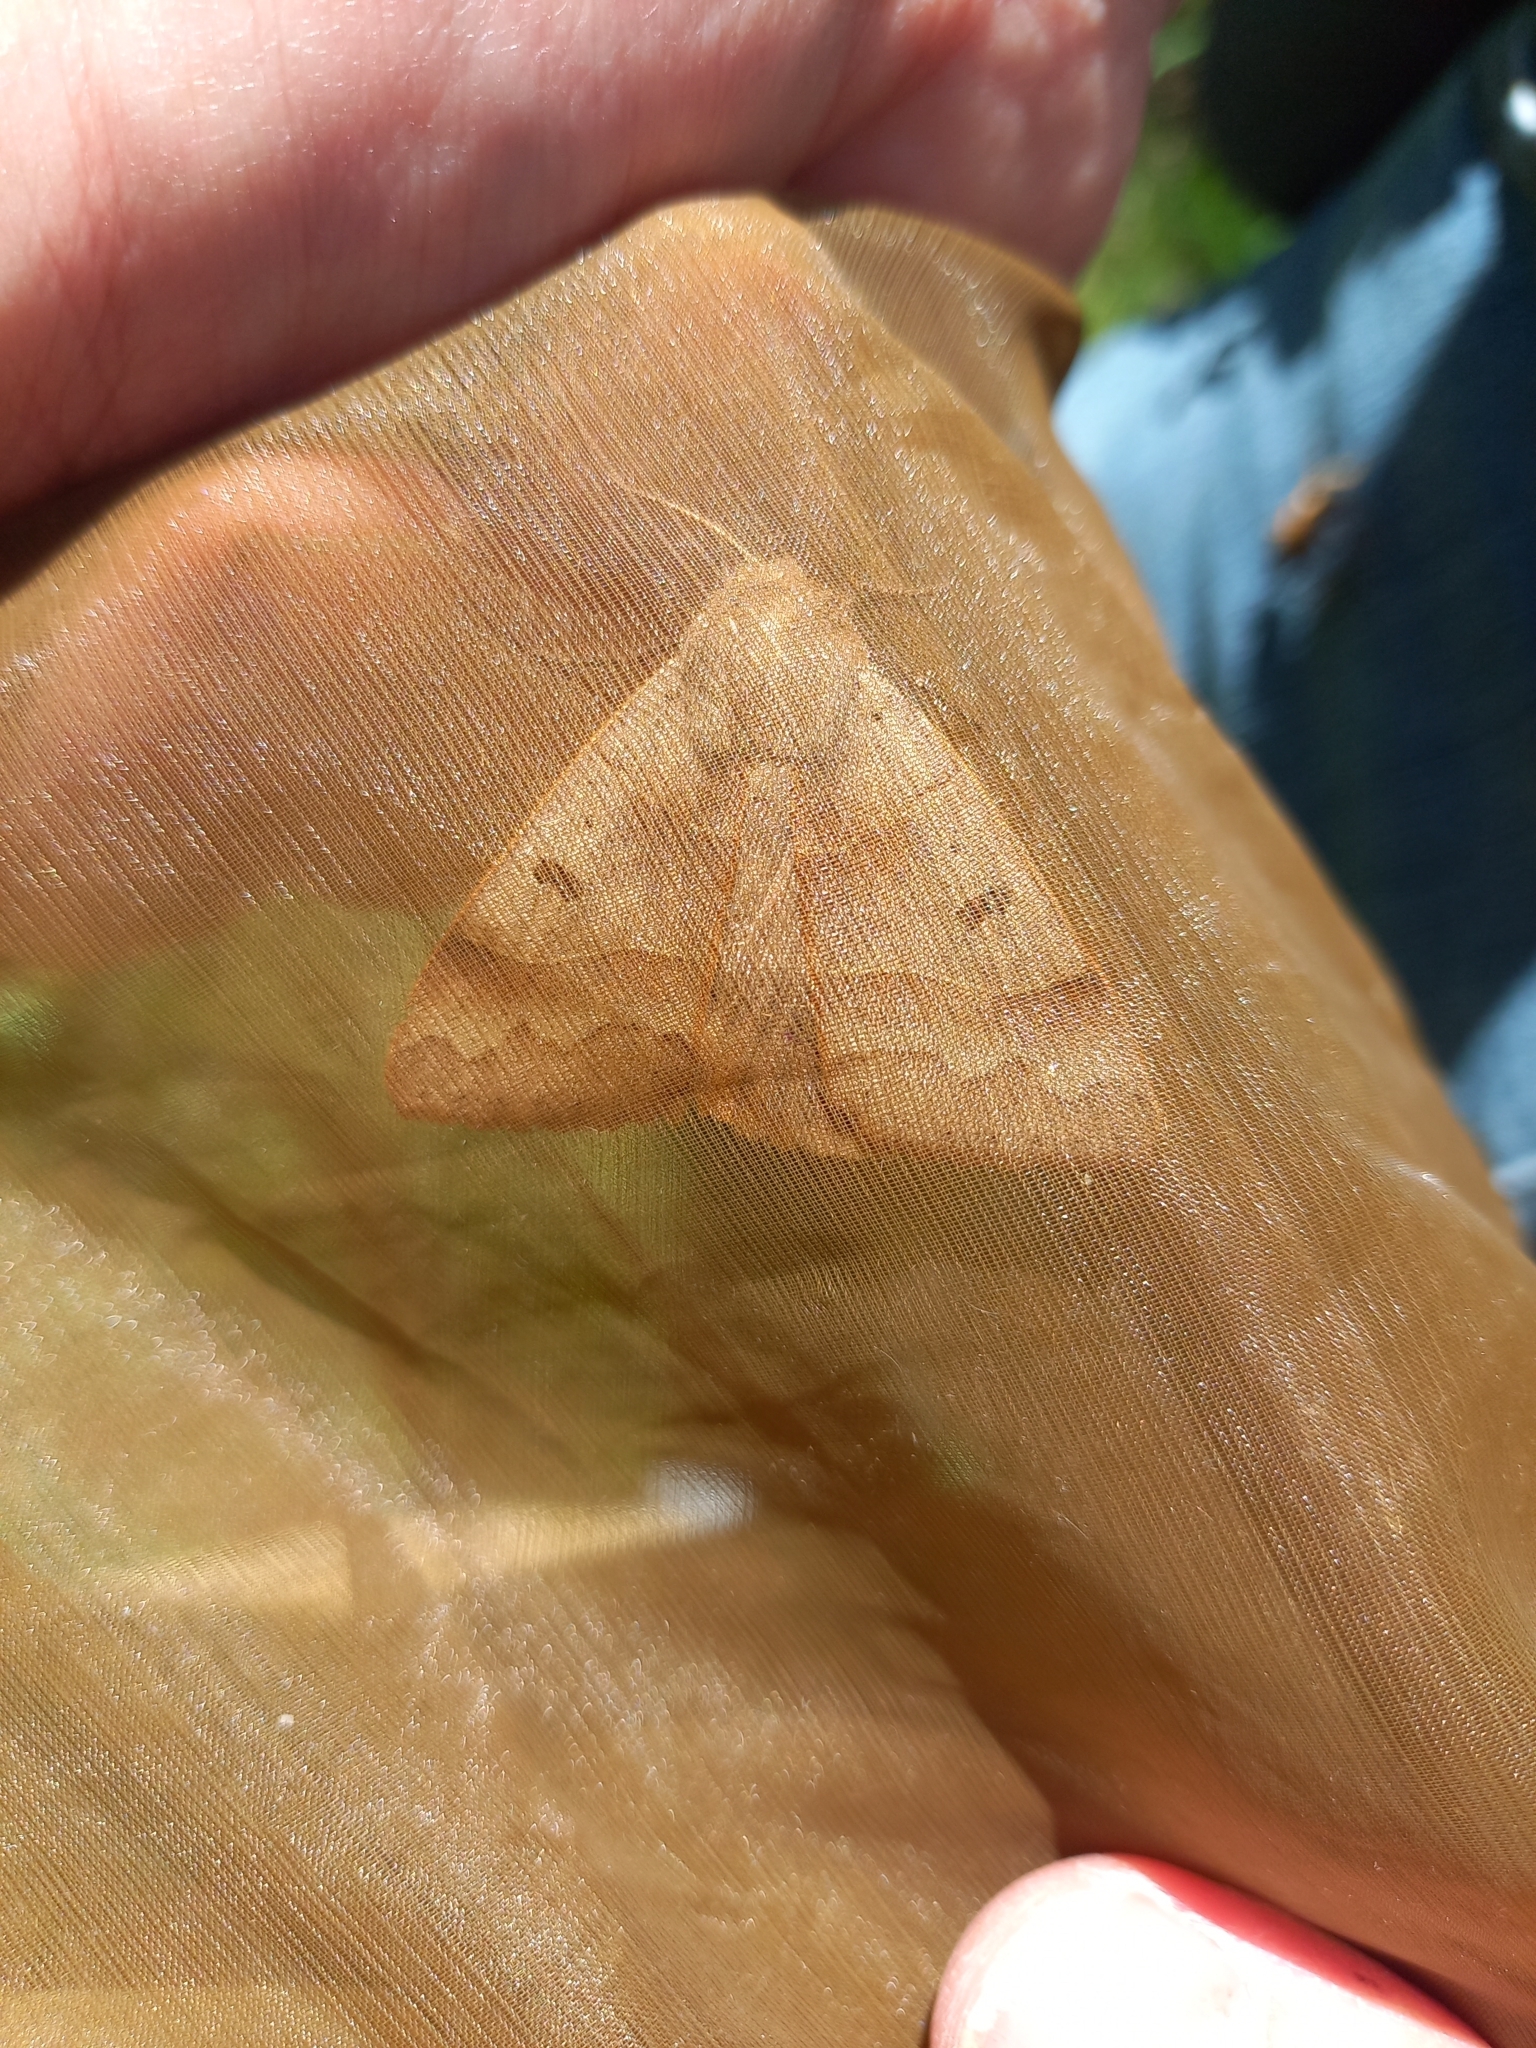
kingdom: Animalia
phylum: Arthropoda
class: Insecta
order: Lepidoptera
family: Erebidae
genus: Minucia
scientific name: Minucia lunaris
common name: Lunar double-stripe
